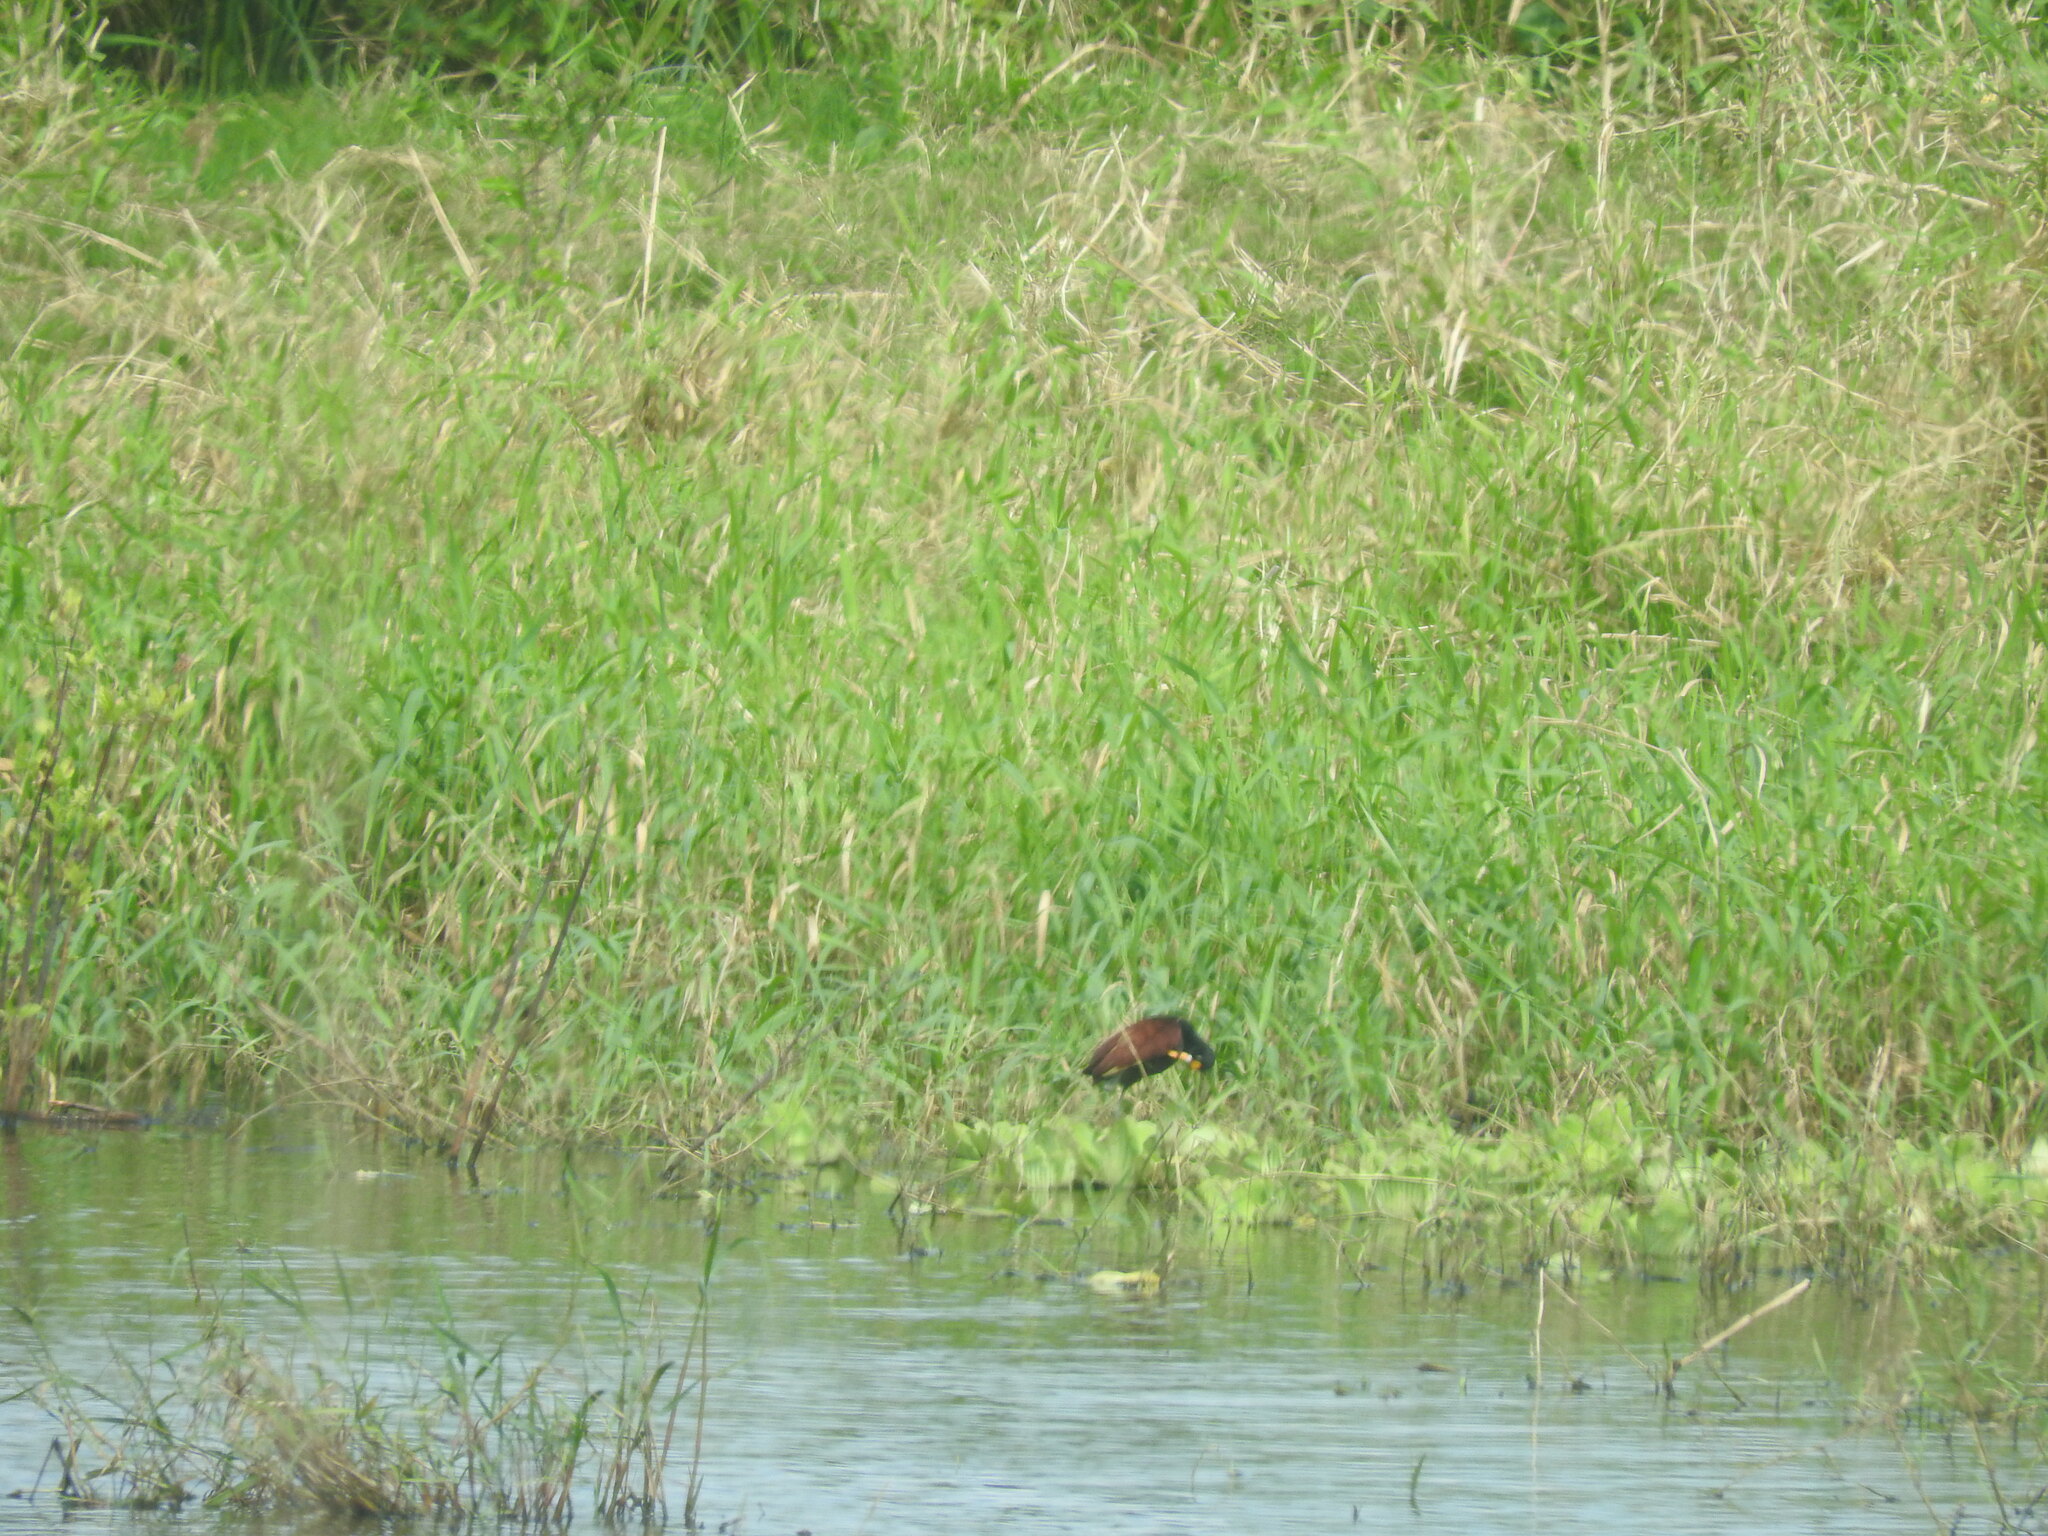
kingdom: Animalia
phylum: Chordata
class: Aves
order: Charadriiformes
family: Jacanidae
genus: Jacana
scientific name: Jacana spinosa
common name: Northern jacana
